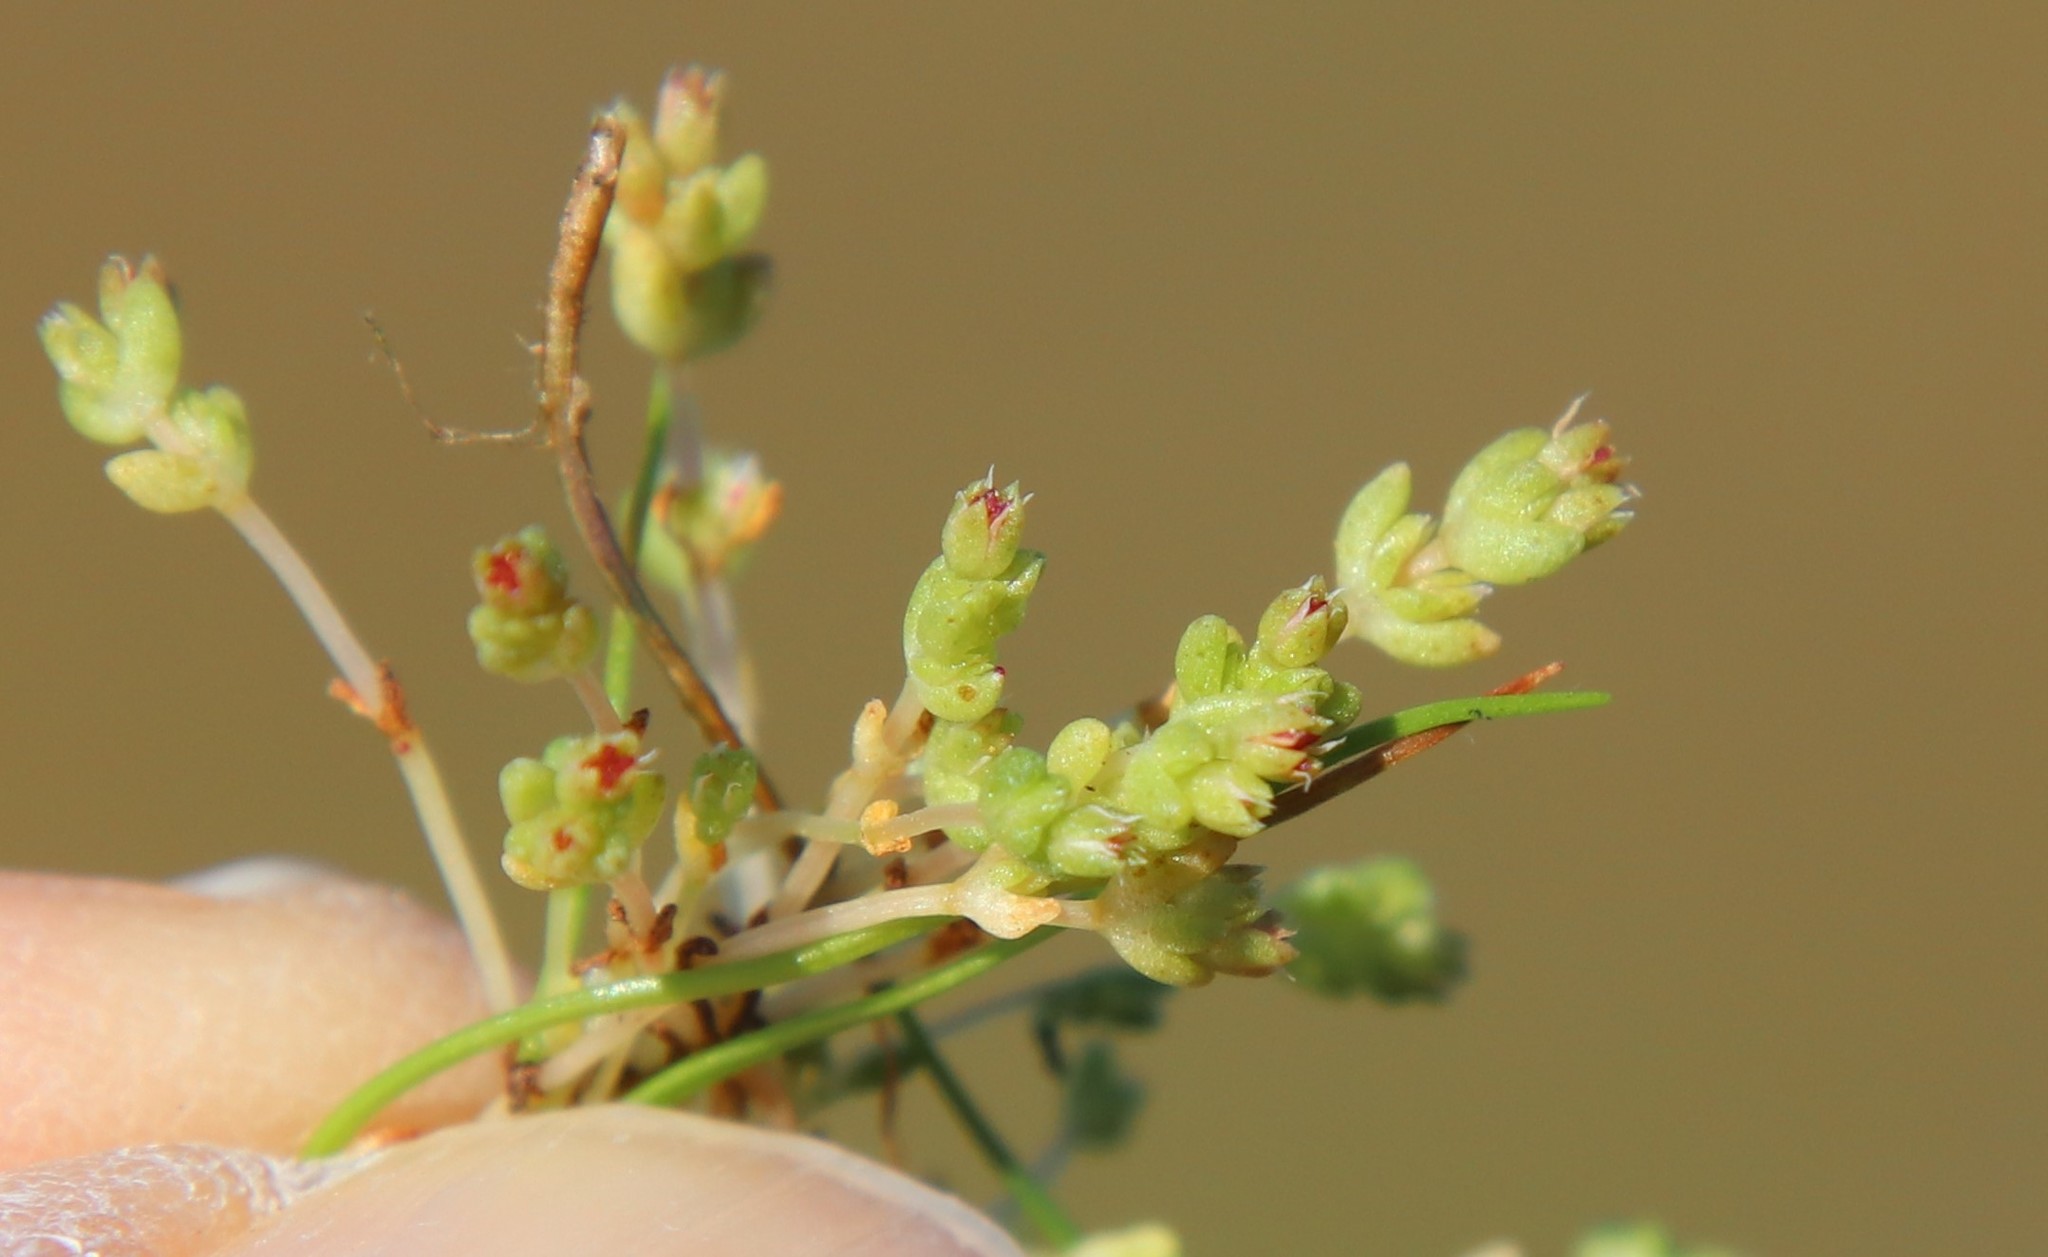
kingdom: Plantae
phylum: Tracheophyta
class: Magnoliopsida
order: Saxifragales
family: Crassulaceae
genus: Crassula
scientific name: Crassula connata
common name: Erect pygmyweed
